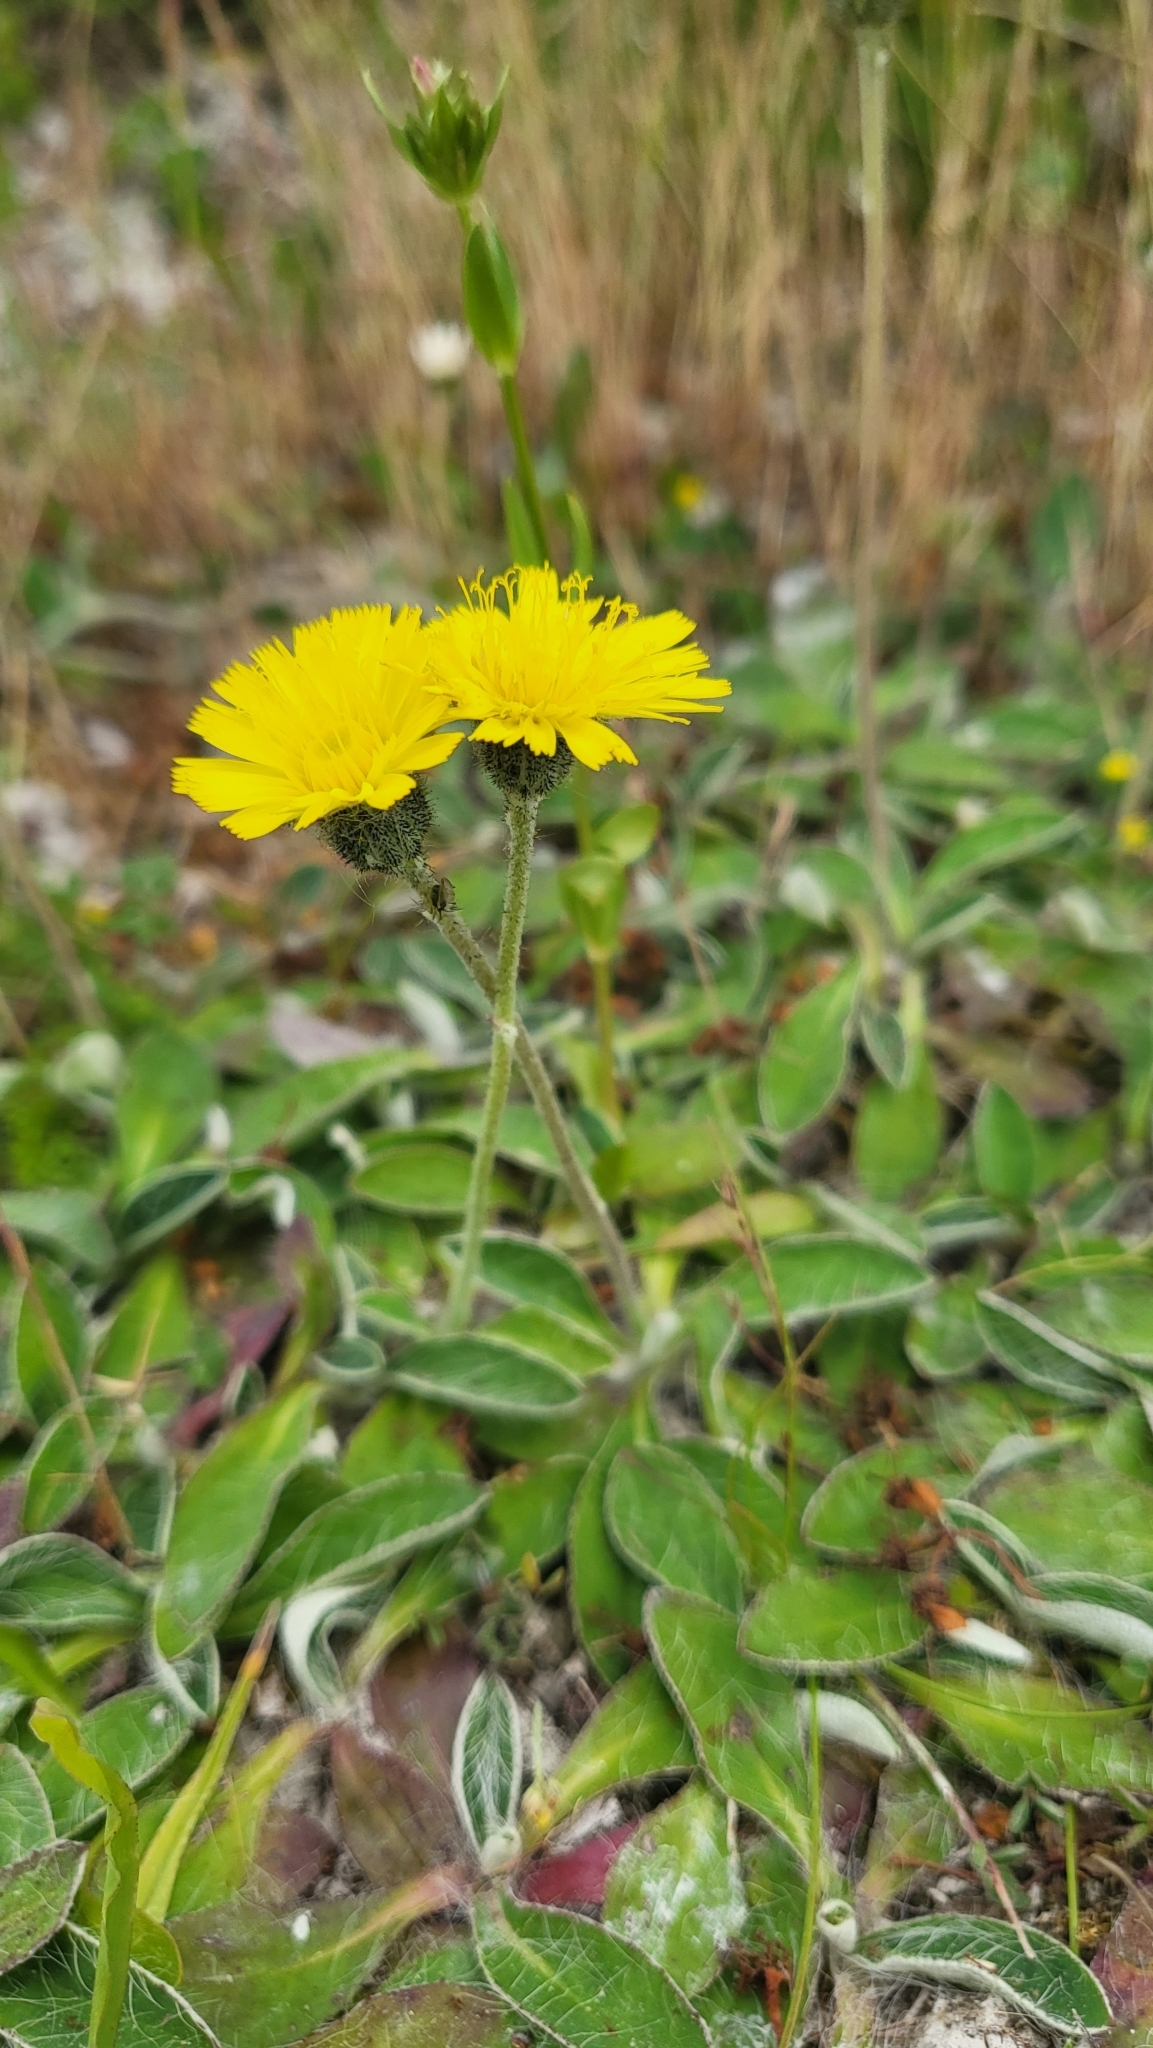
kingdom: Plantae
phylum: Tracheophyta
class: Magnoliopsida
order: Asterales
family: Asteraceae
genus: Pilosella
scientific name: Pilosella officinarum
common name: Mouse-ear hawkweed
